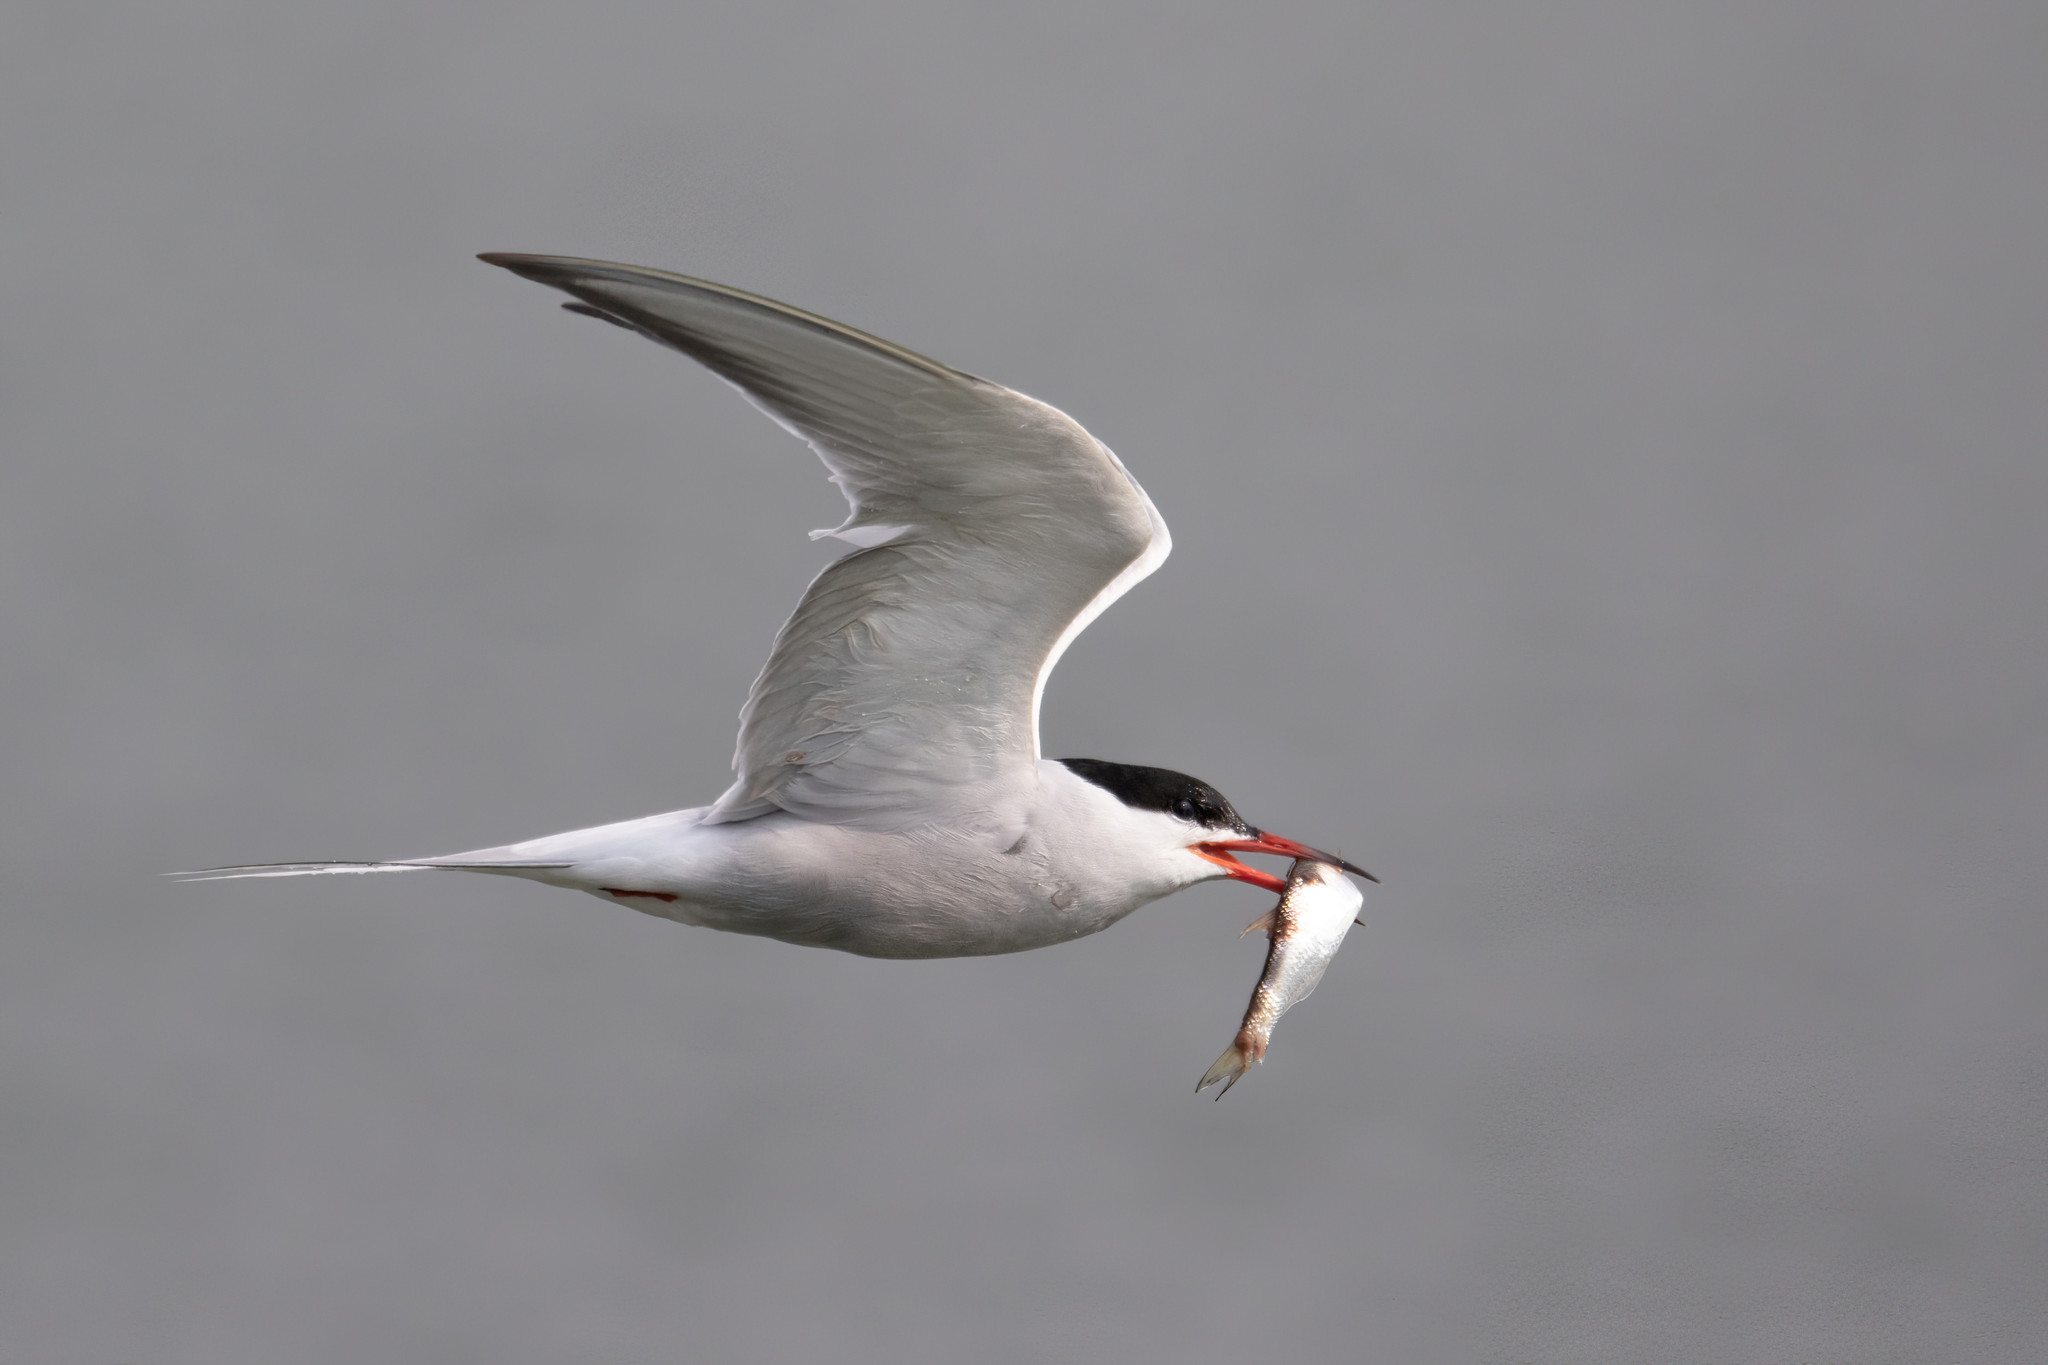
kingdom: Animalia
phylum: Chordata
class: Aves
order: Charadriiformes
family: Laridae
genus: Sterna
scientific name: Sterna hirundo
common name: Common tern
